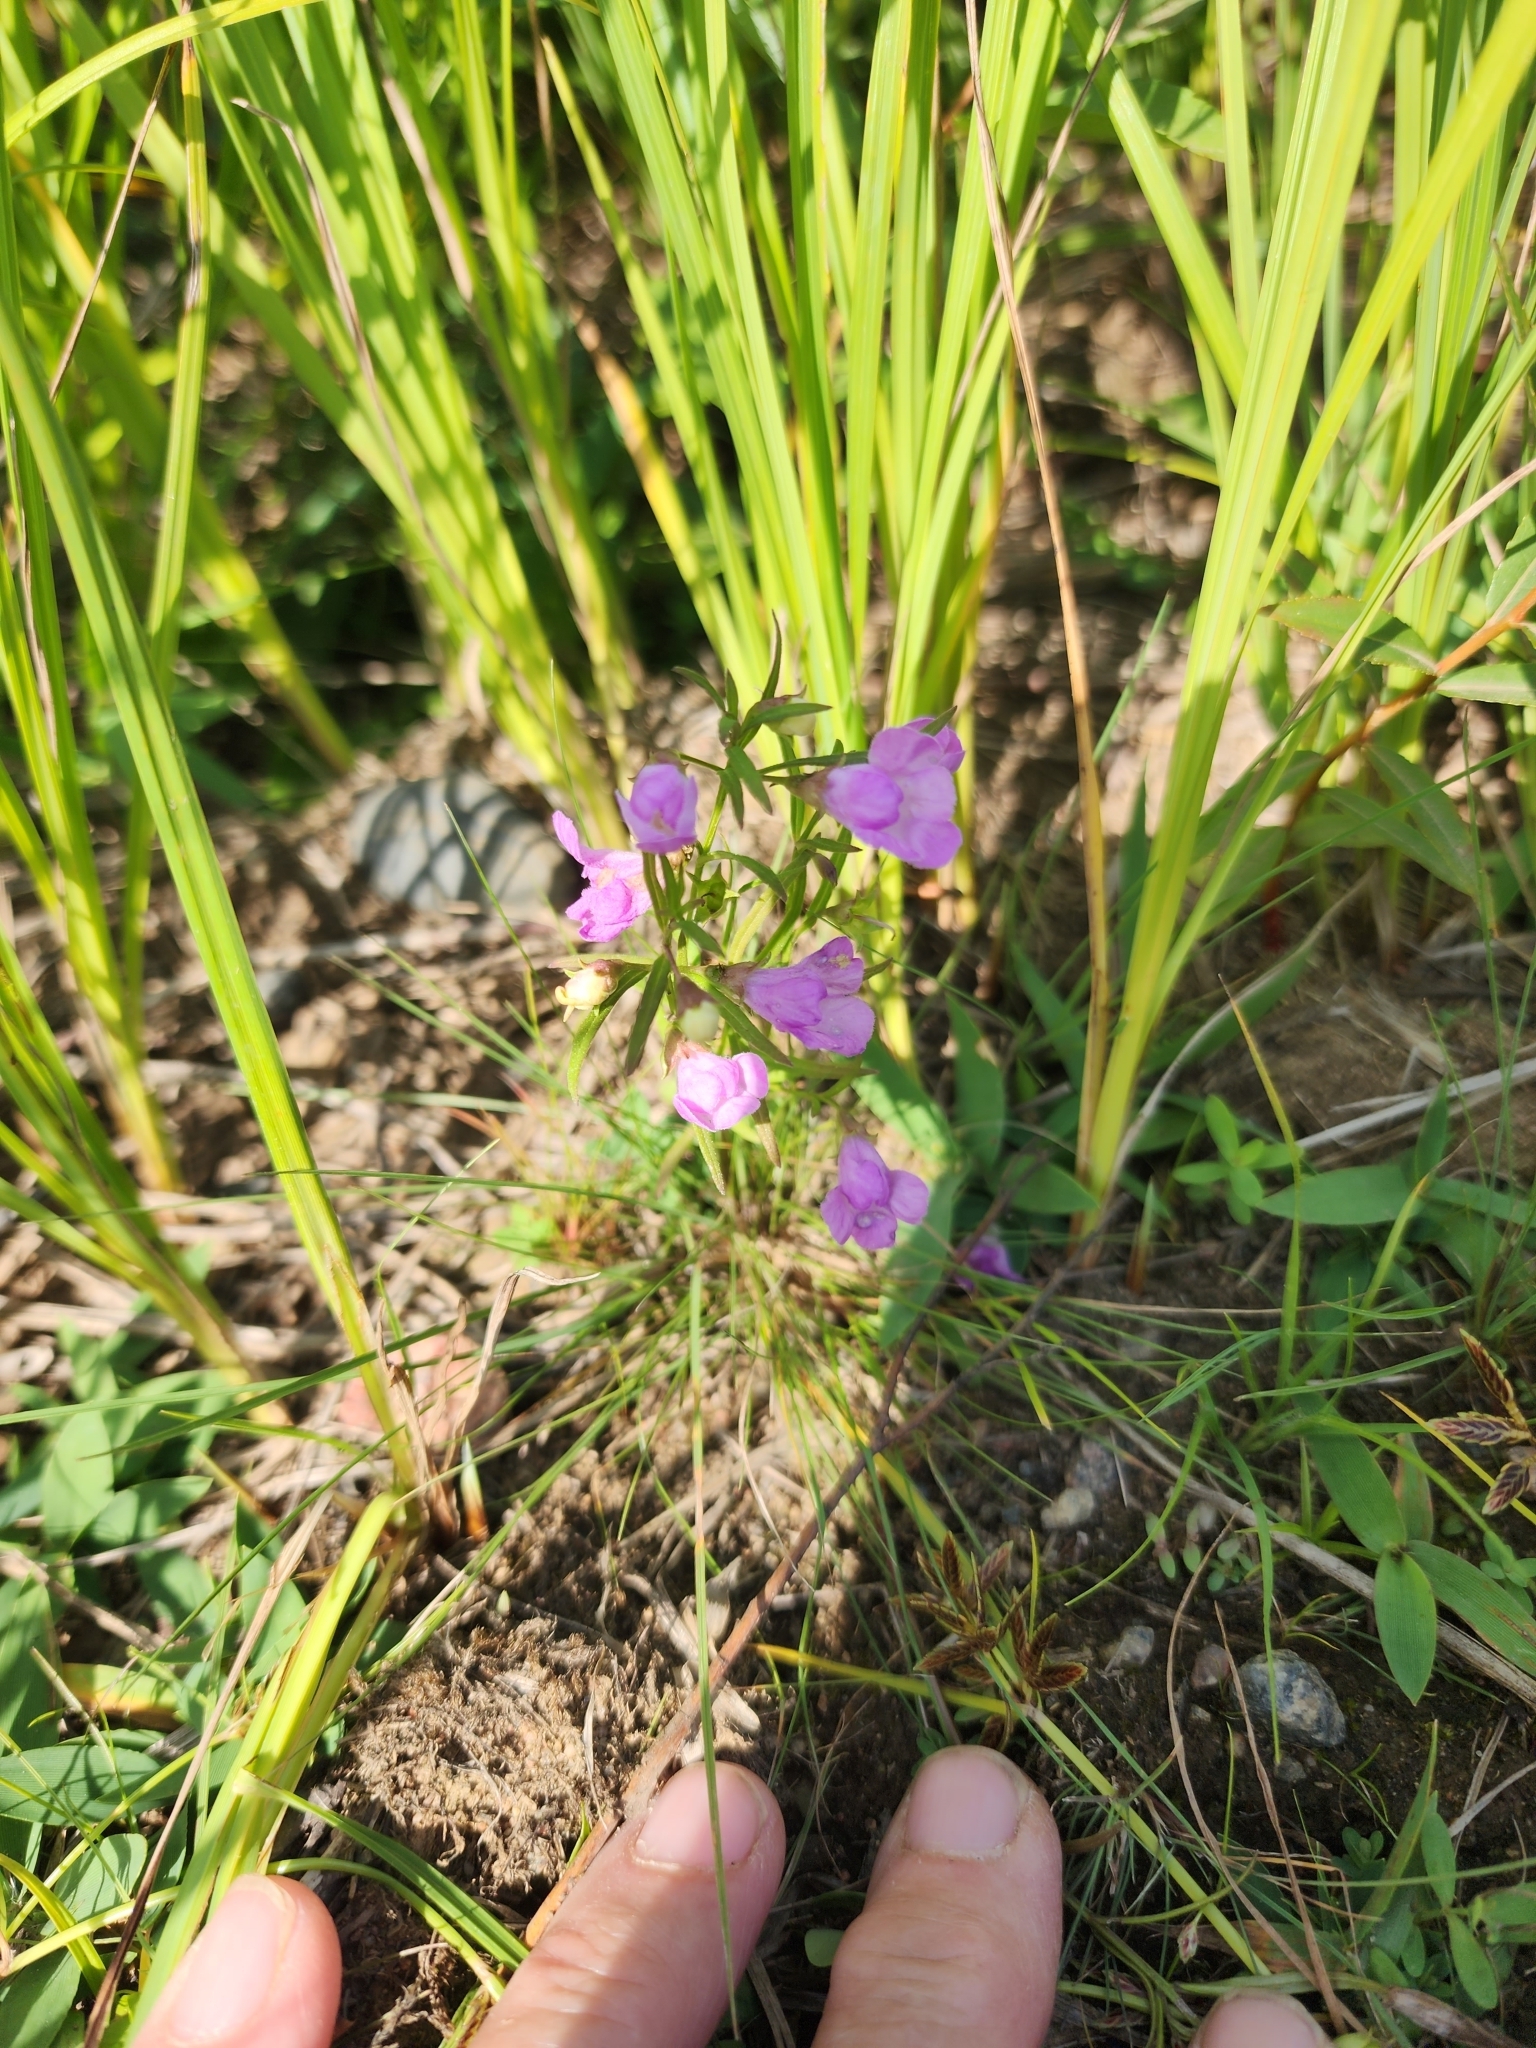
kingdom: Plantae
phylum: Tracheophyta
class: Magnoliopsida
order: Lamiales
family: Orobanchaceae
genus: Agalinis
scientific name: Agalinis tenuifolia
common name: Slender agalinis
